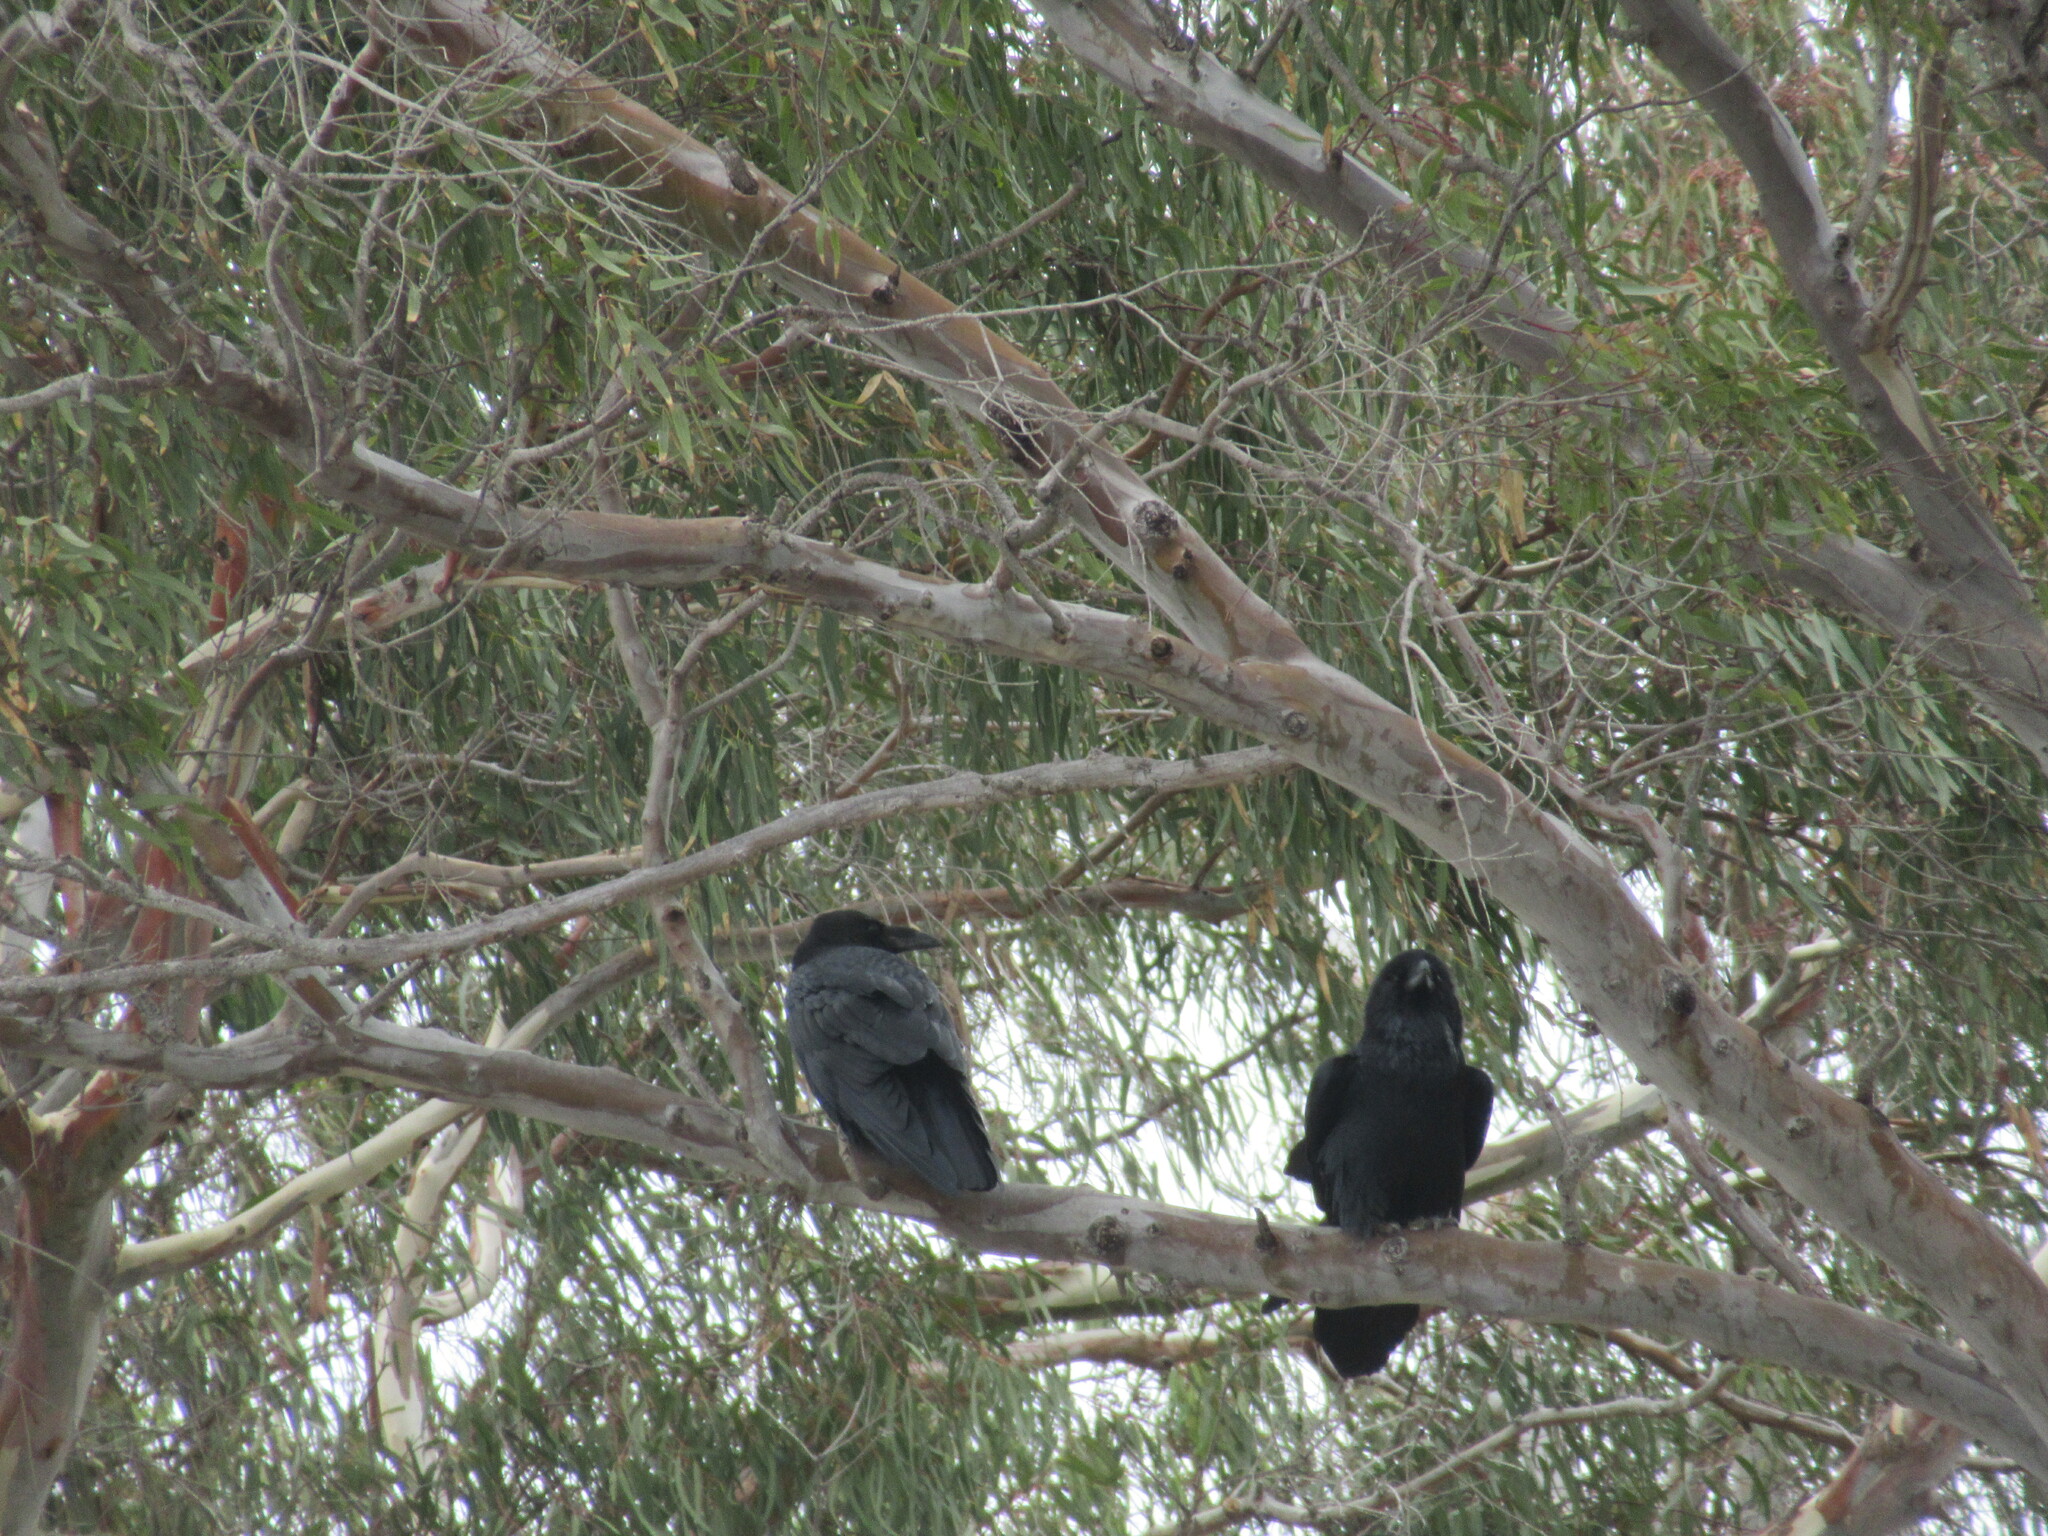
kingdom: Animalia
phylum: Chordata
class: Aves
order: Passeriformes
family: Corvidae
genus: Corvus
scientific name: Corvus corax
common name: Common raven
